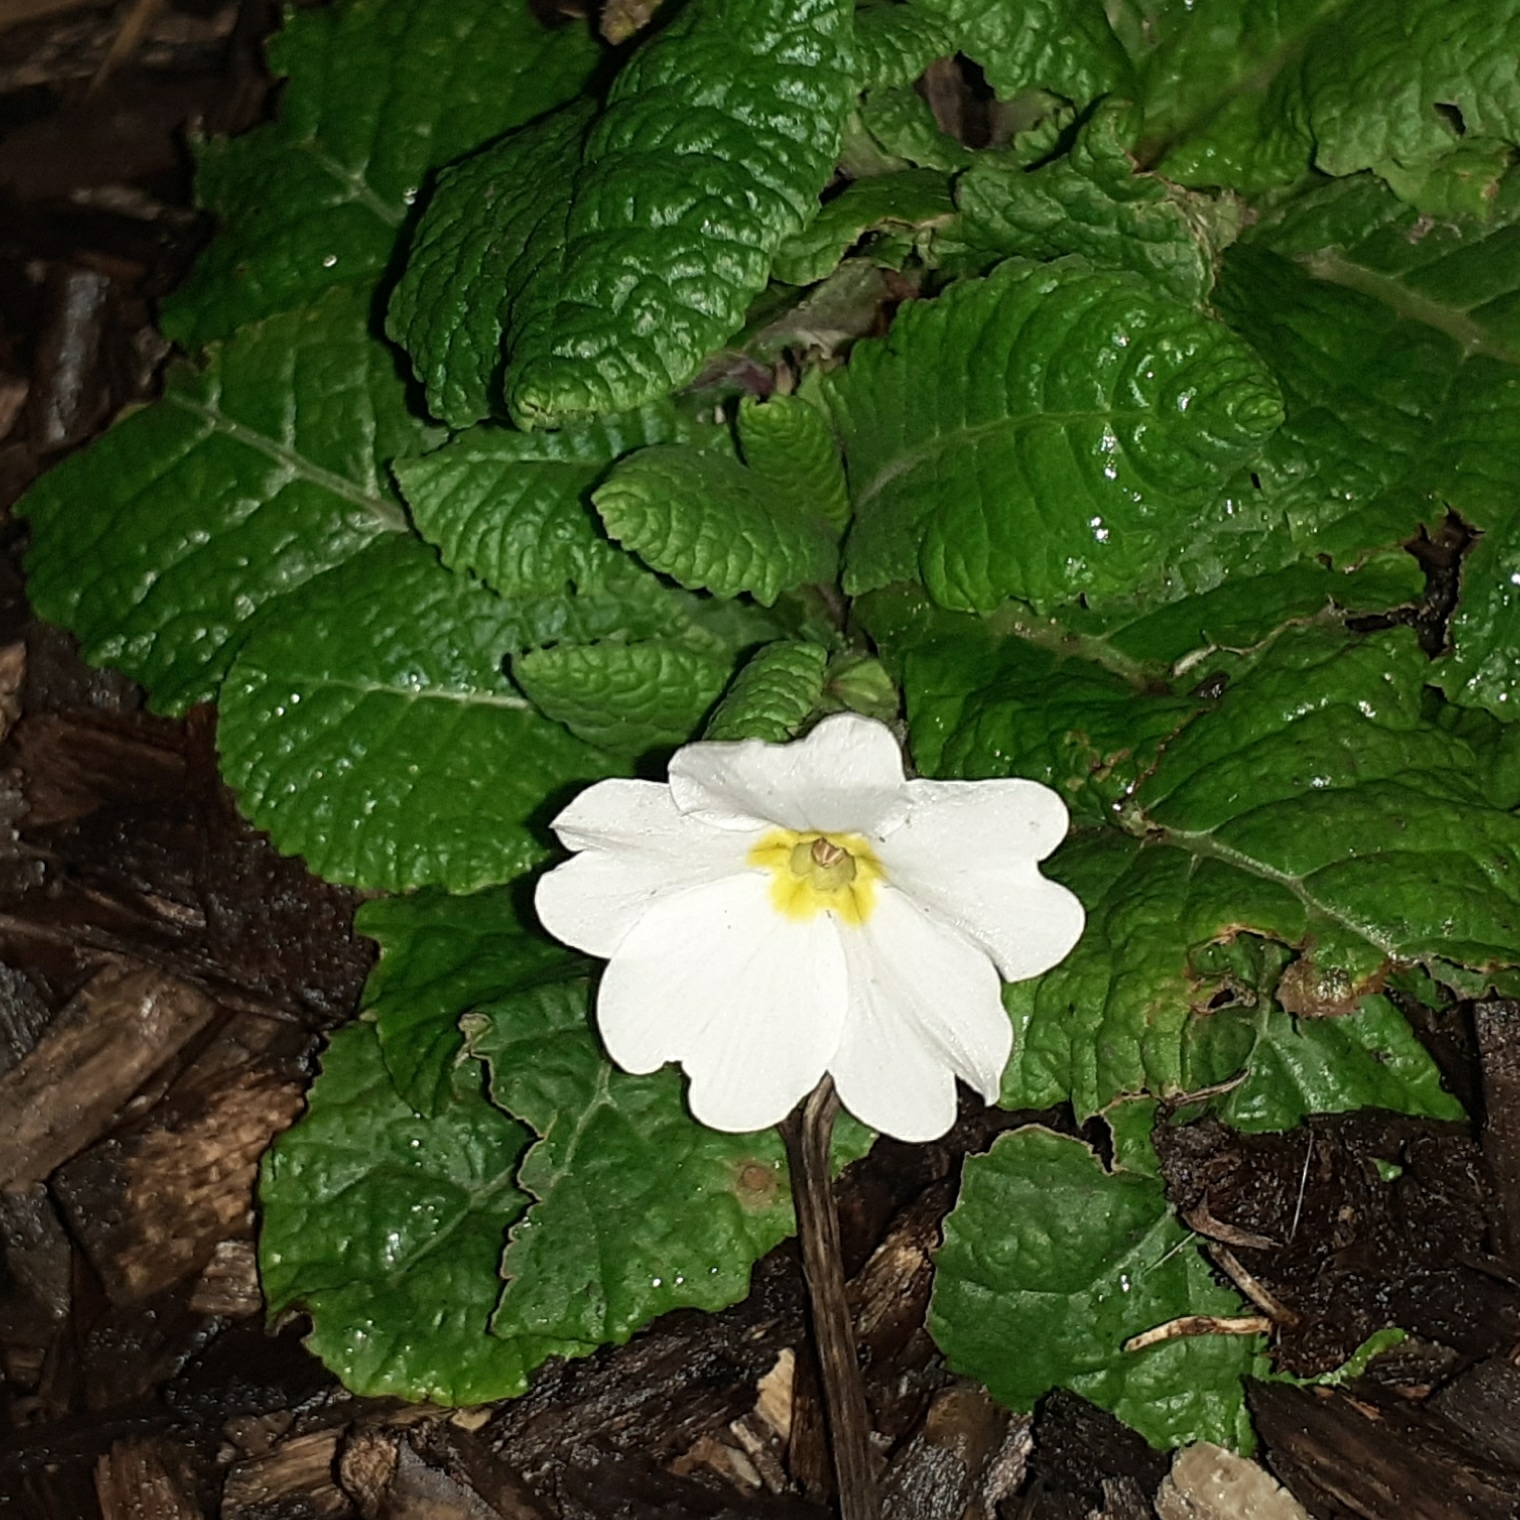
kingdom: Plantae
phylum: Tracheophyta
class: Magnoliopsida
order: Ericales
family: Primulaceae
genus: Primula
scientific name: Primula vulgaris
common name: Primrose
